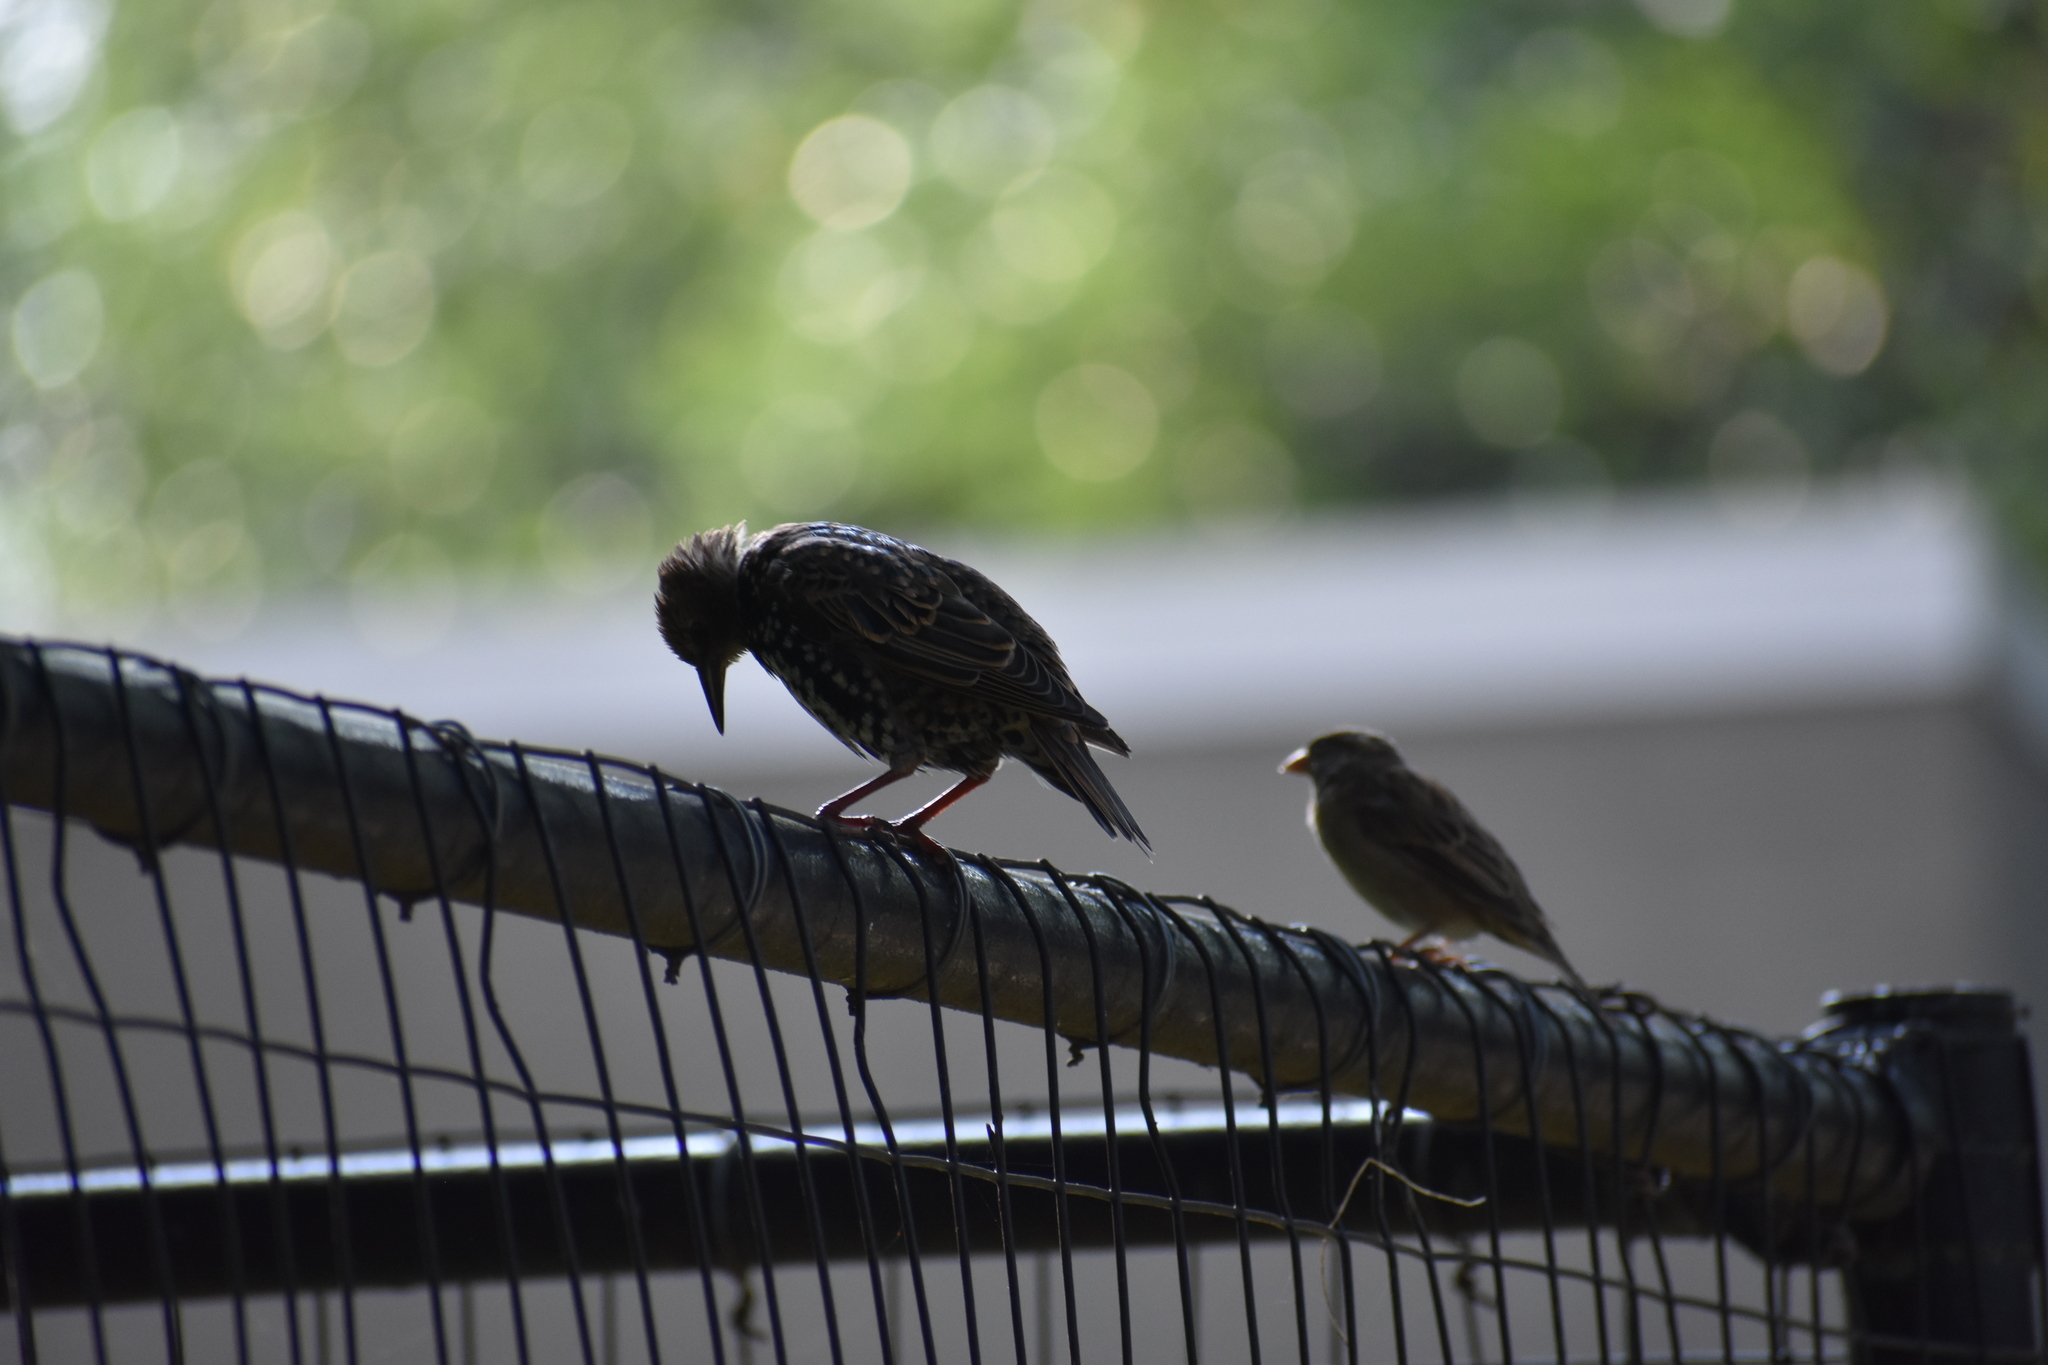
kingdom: Animalia
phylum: Chordata
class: Aves
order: Passeriformes
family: Sturnidae
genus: Sturnus
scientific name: Sturnus vulgaris
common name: Common starling
